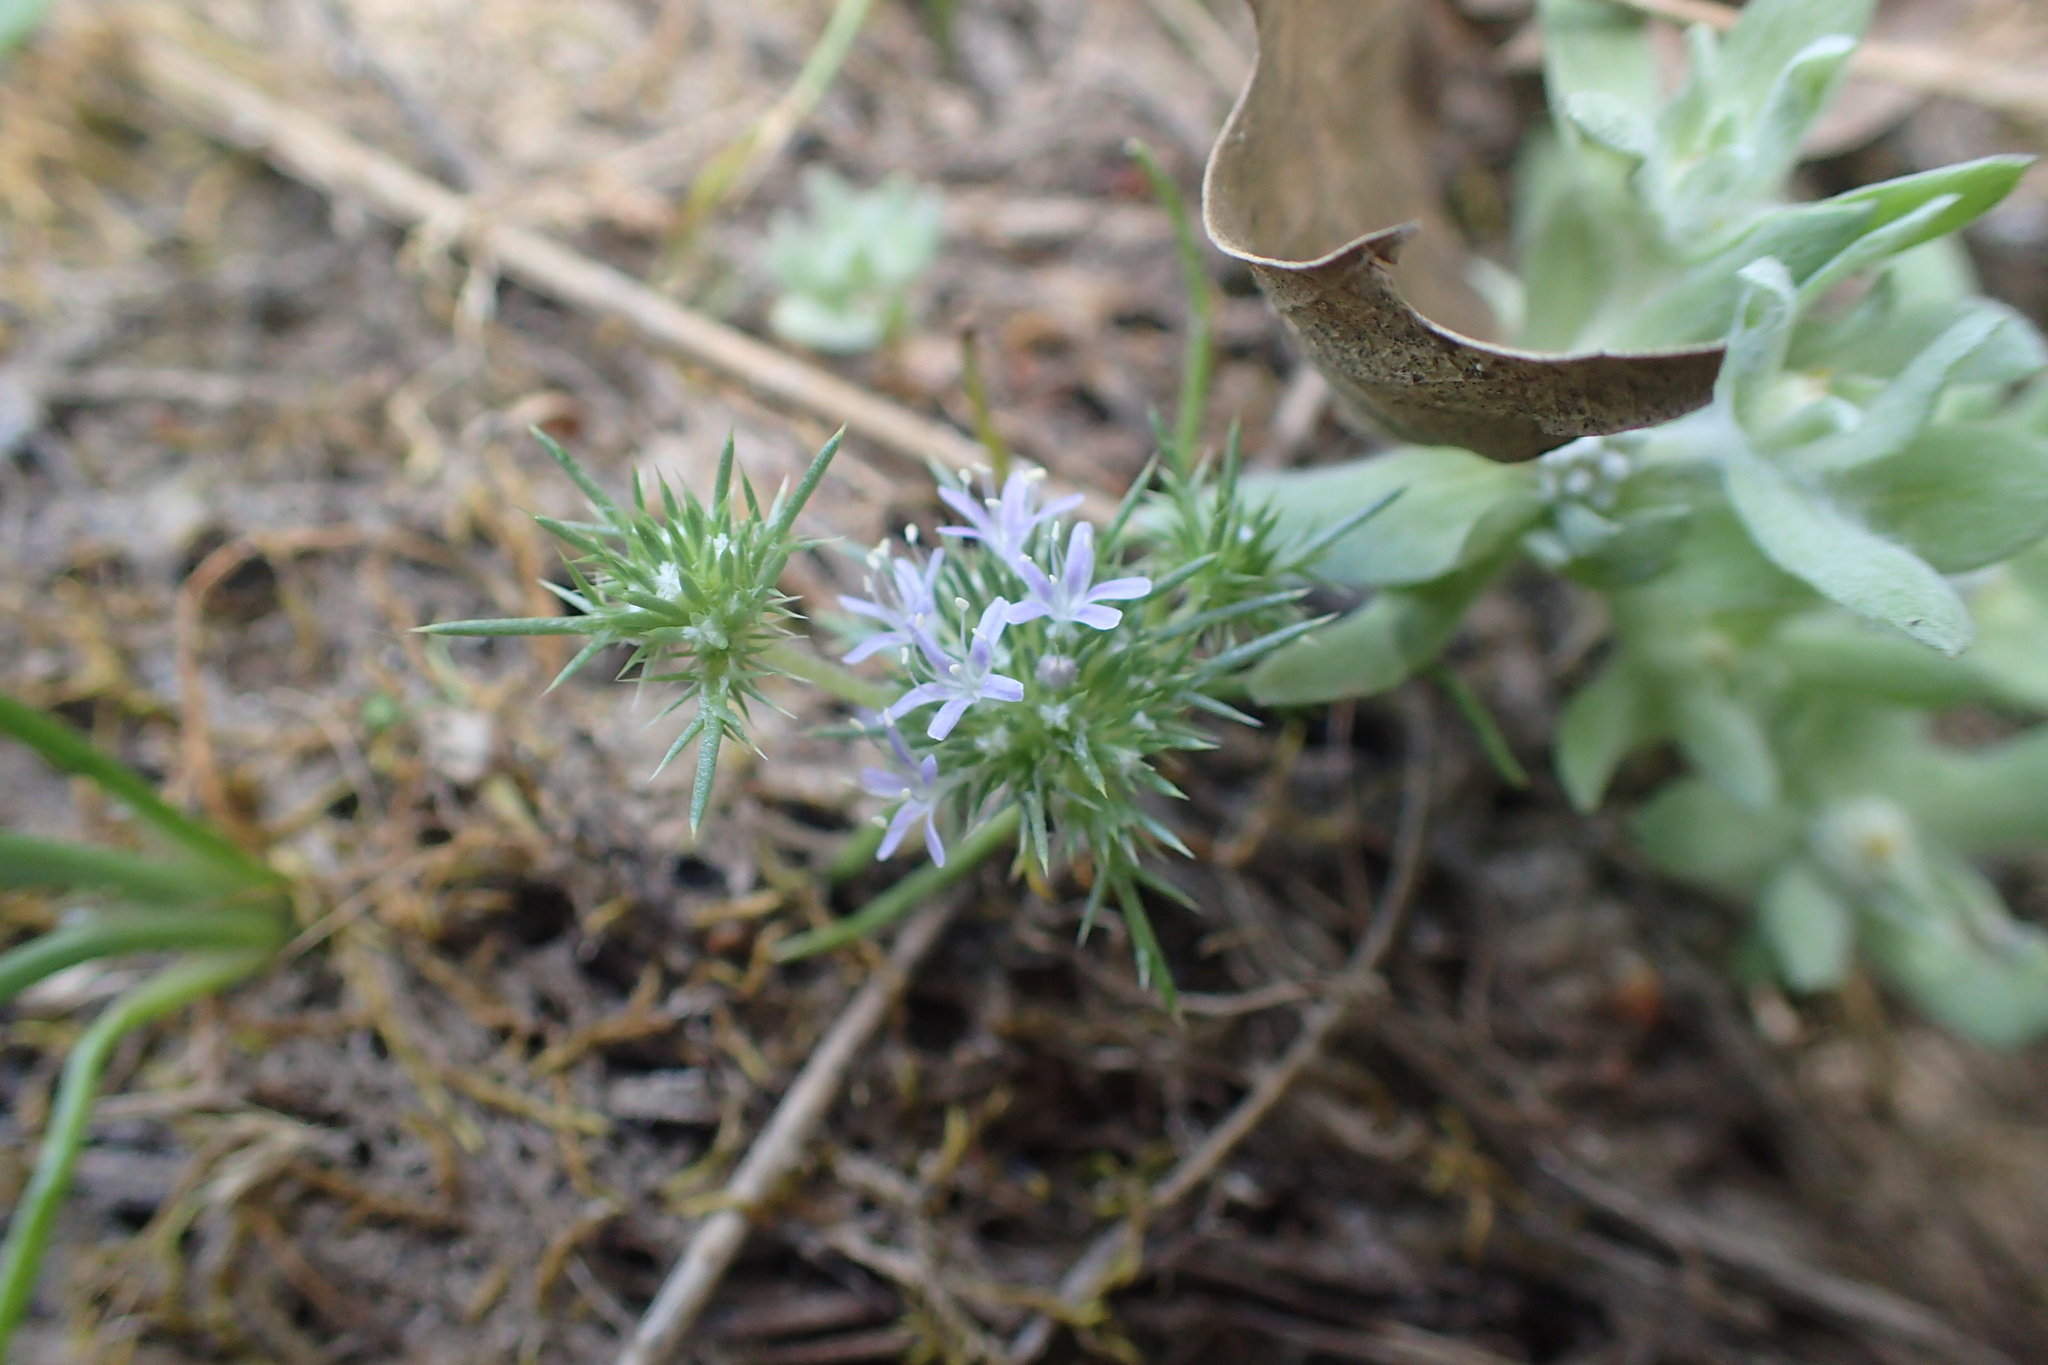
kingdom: Plantae
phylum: Tracheophyta
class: Magnoliopsida
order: Ericales
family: Polemoniaceae
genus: Navarretia
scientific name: Navarretia leucocephala
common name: White-flowered navarretia
